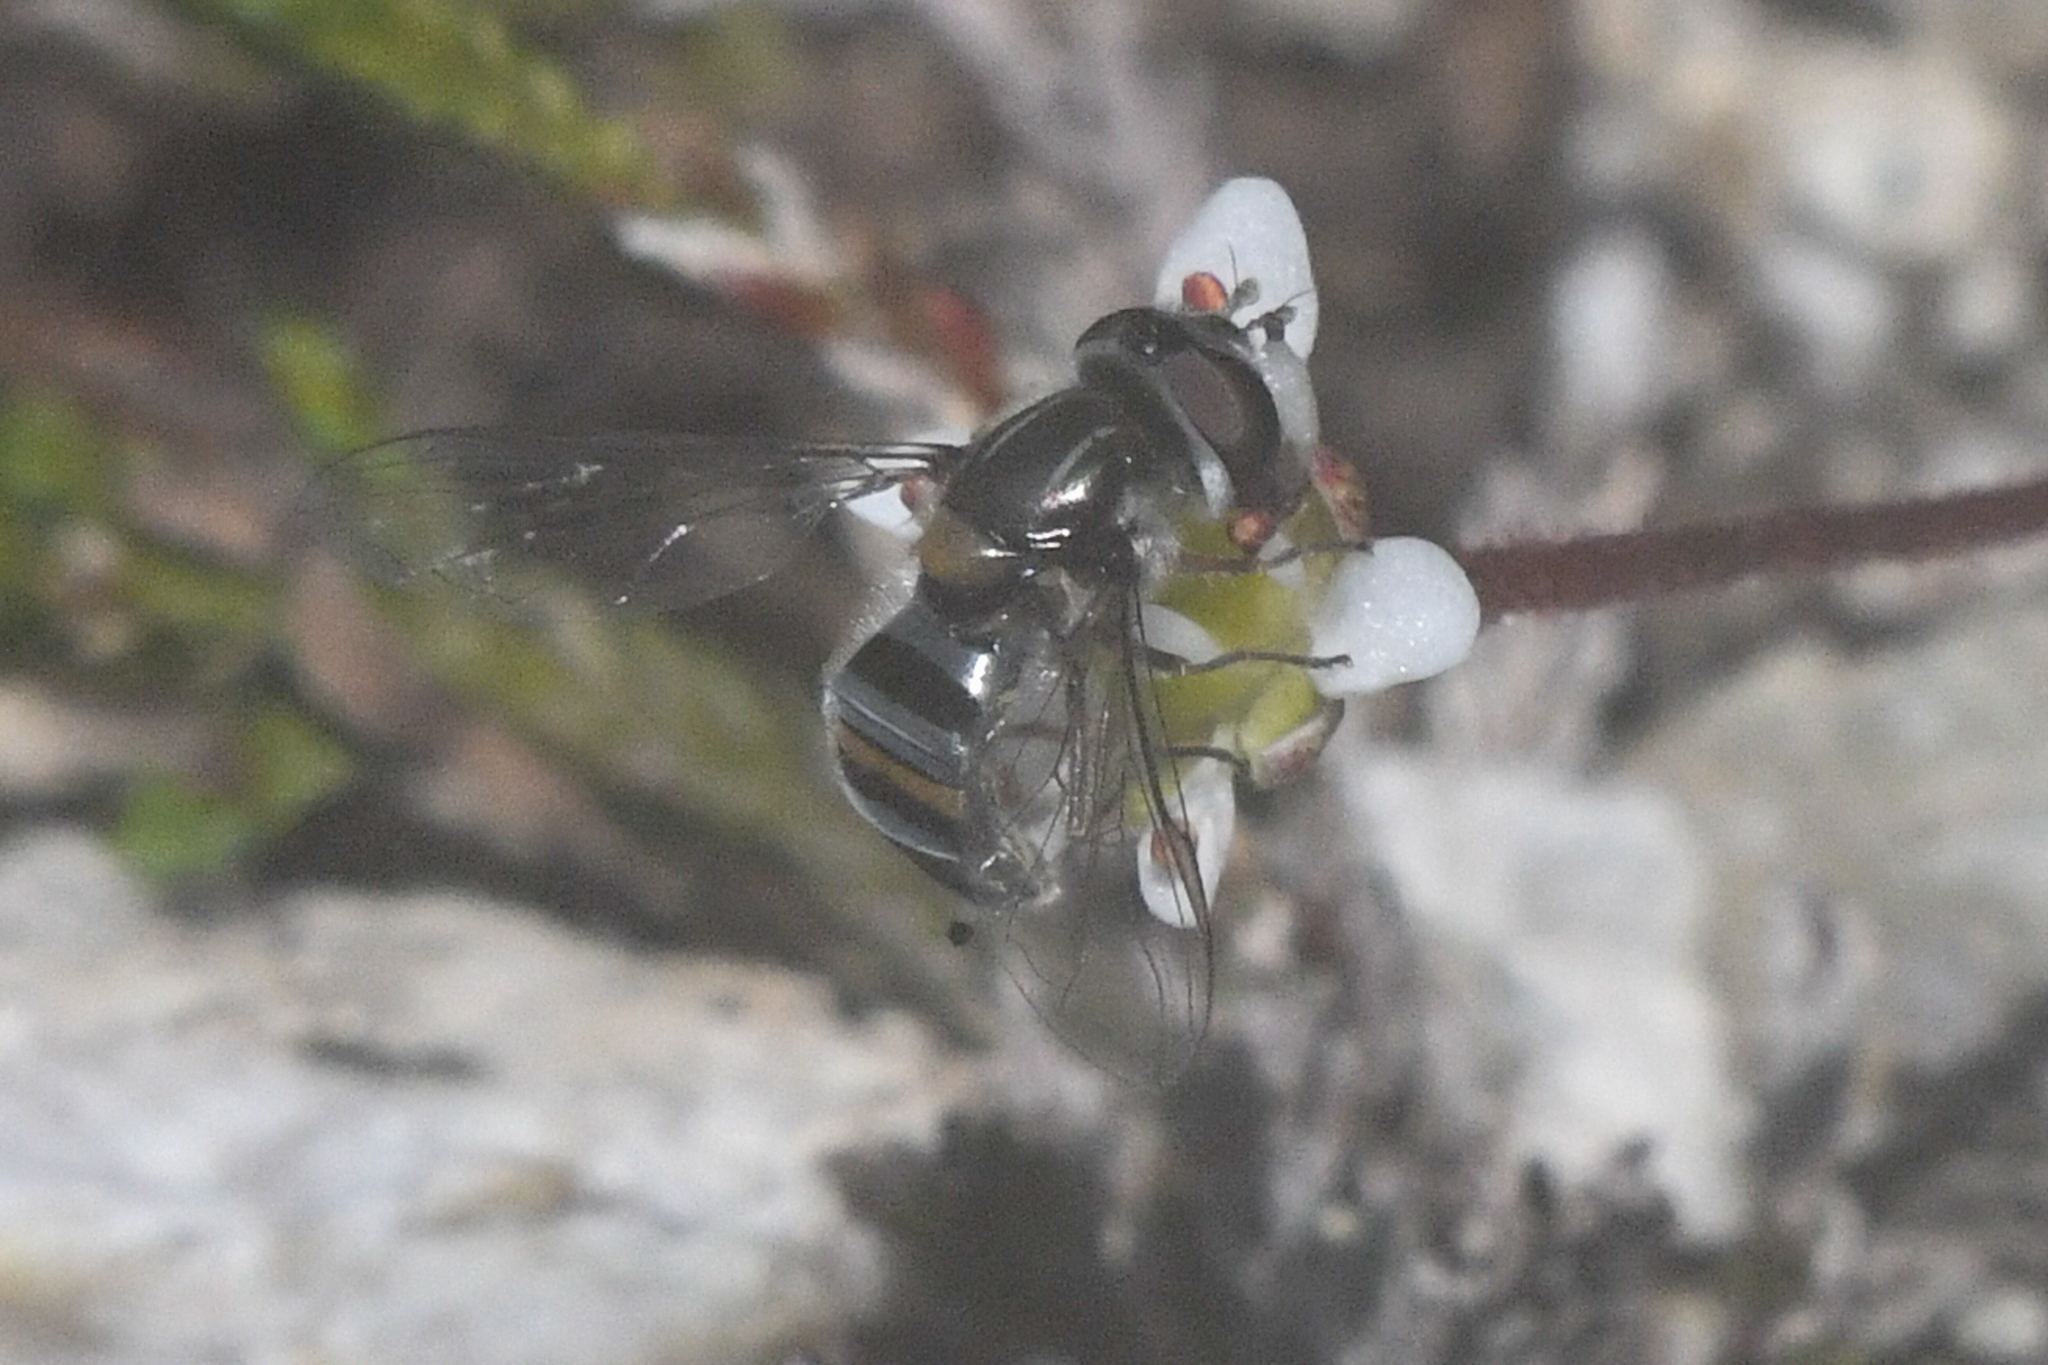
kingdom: Animalia
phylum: Arthropoda
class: Insecta
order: Diptera
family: Syrphidae
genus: Pseudoscaeva
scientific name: Pseudoscaeva diversifasciata
